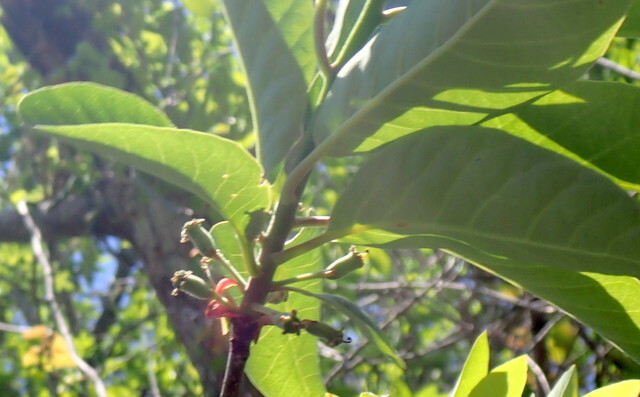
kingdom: Plantae
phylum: Tracheophyta
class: Magnoliopsida
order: Cornales
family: Nyssaceae
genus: Nyssa
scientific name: Nyssa ogeche
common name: Ogeechee tupelo
